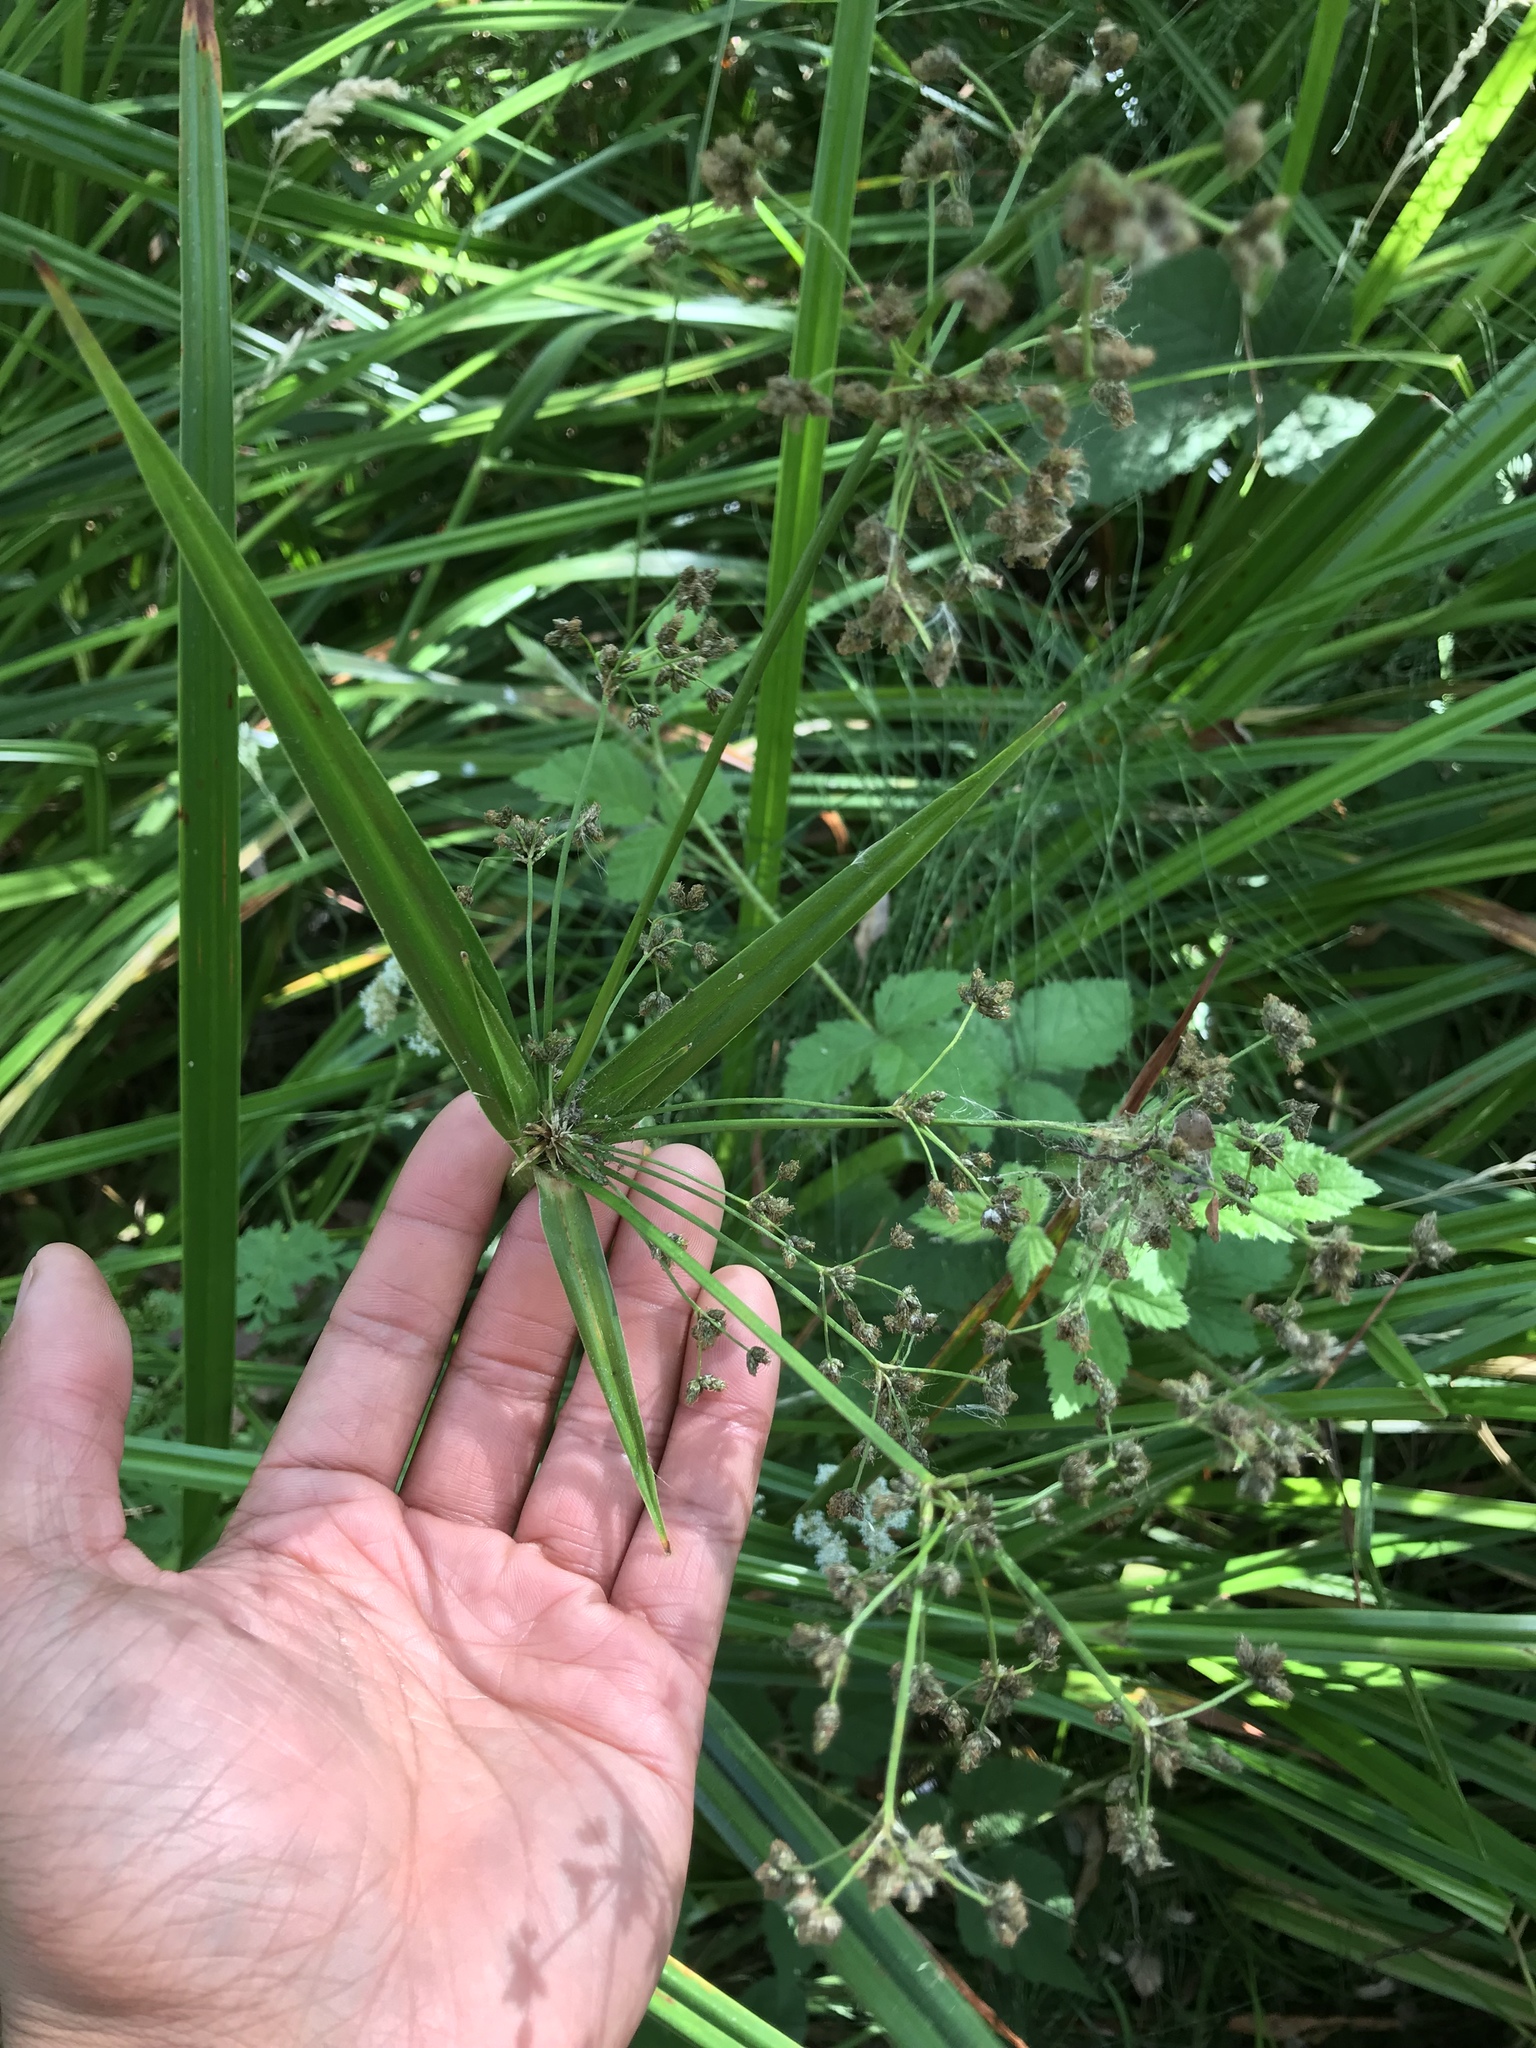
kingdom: Plantae
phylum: Tracheophyta
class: Liliopsida
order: Poales
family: Cyperaceae
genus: Scirpus
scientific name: Scirpus microcarpus
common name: Panicled bulrush
